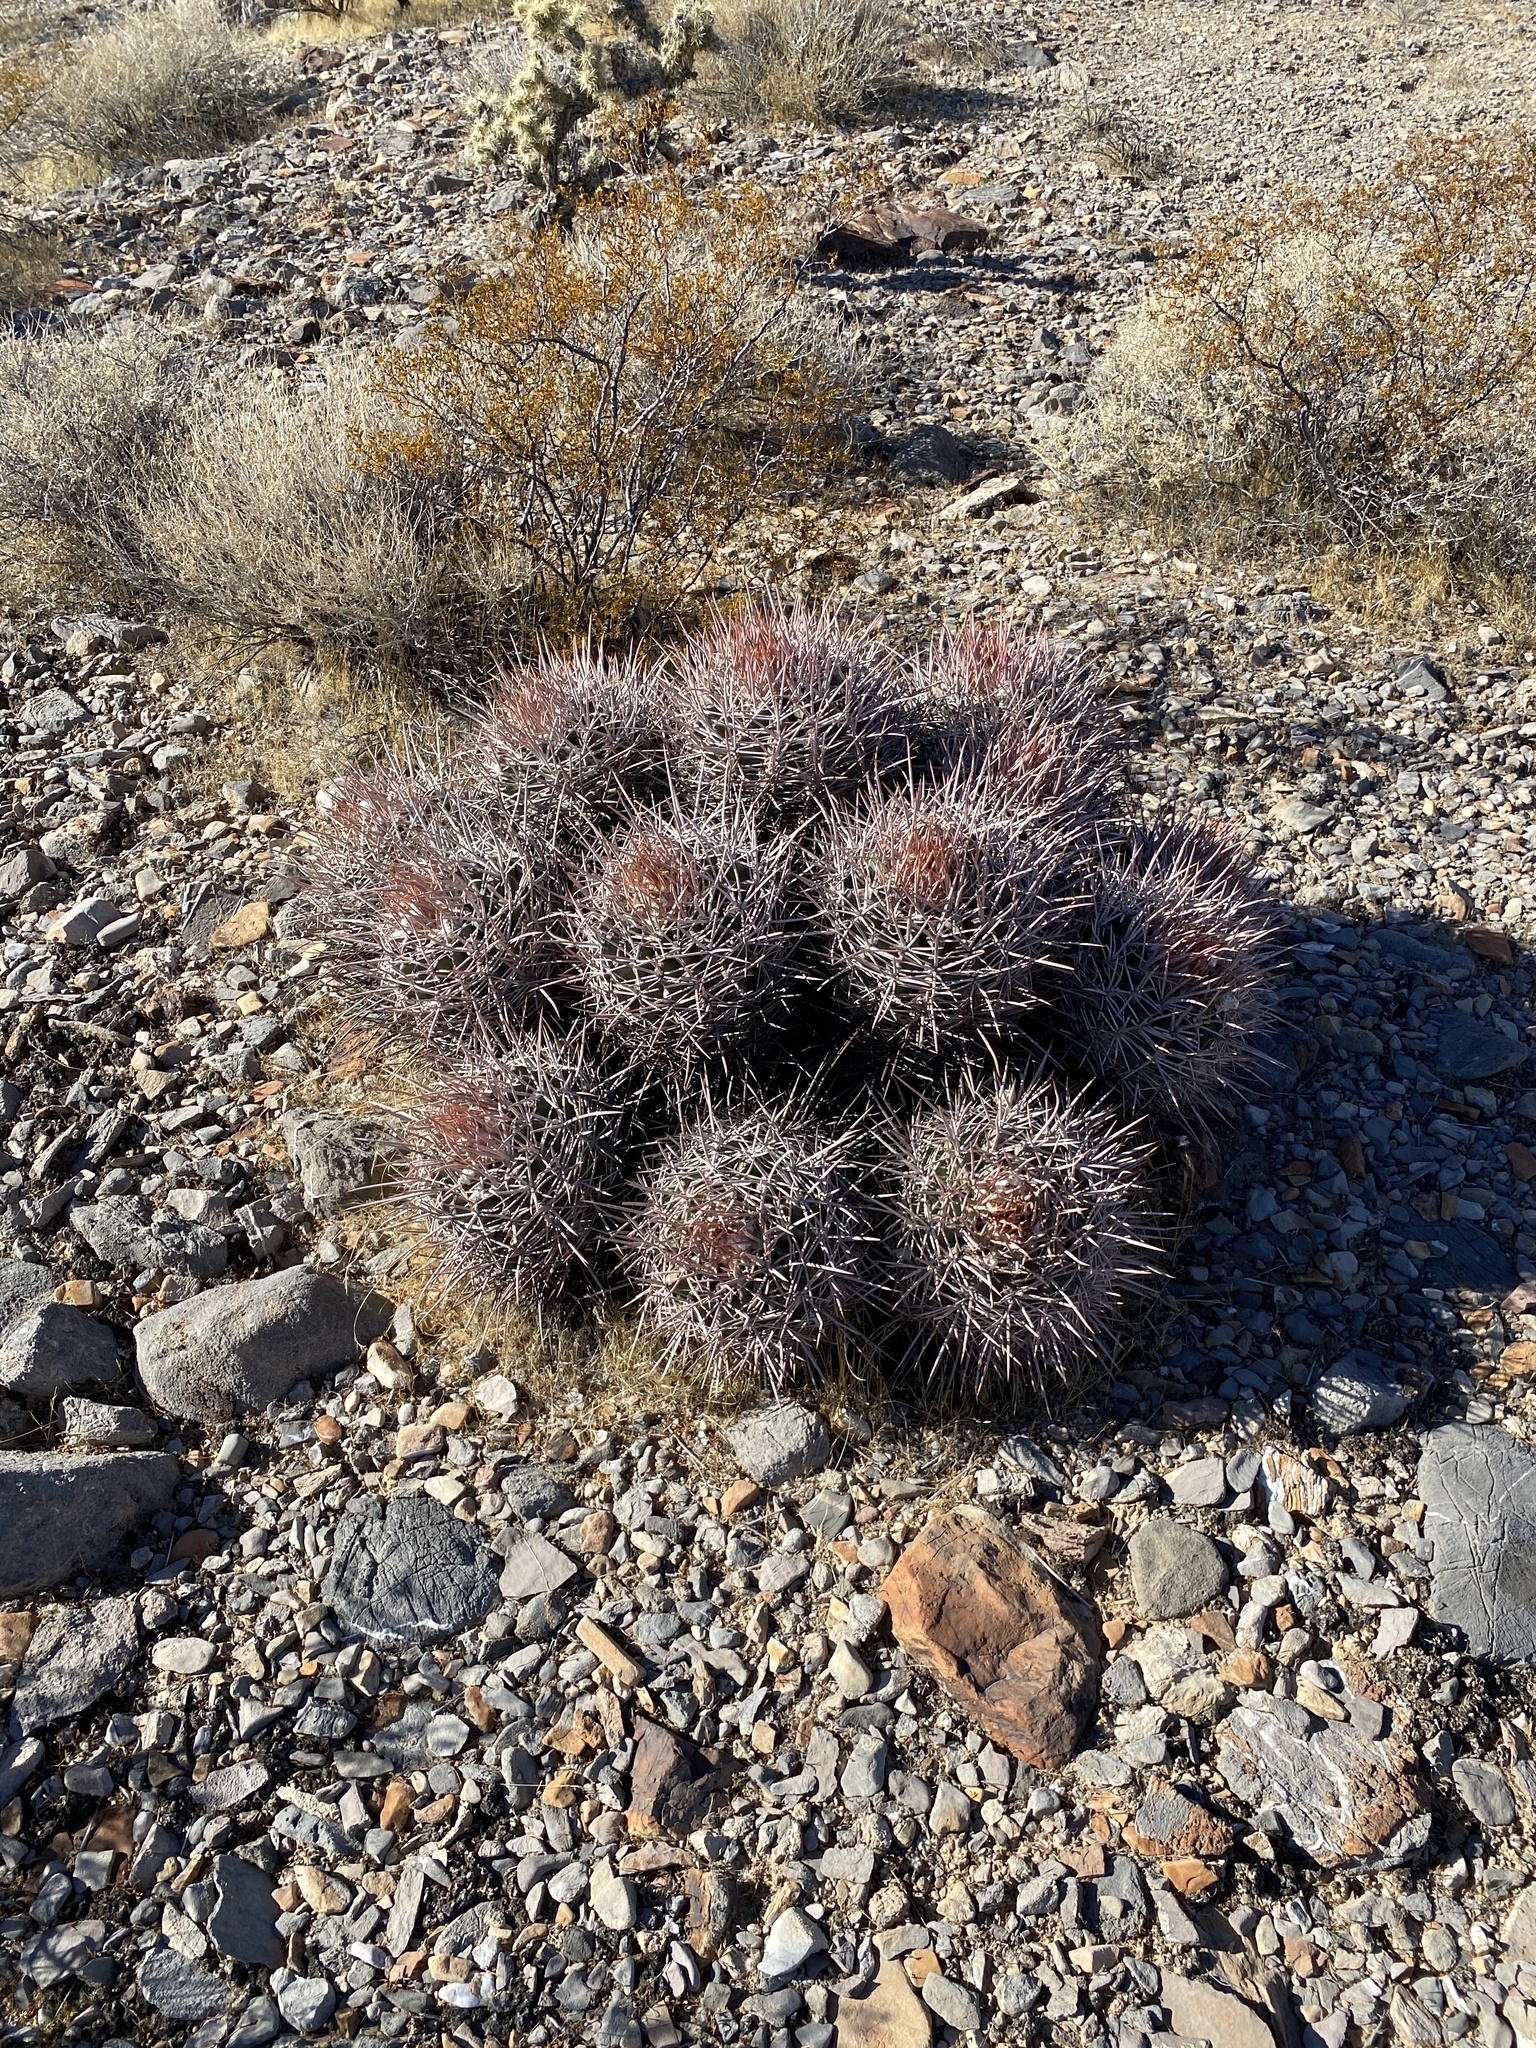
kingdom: Plantae
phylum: Tracheophyta
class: Magnoliopsida
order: Caryophyllales
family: Cactaceae
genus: Echinocactus
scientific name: Echinocactus polycephalus
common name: Cottontop cactus
